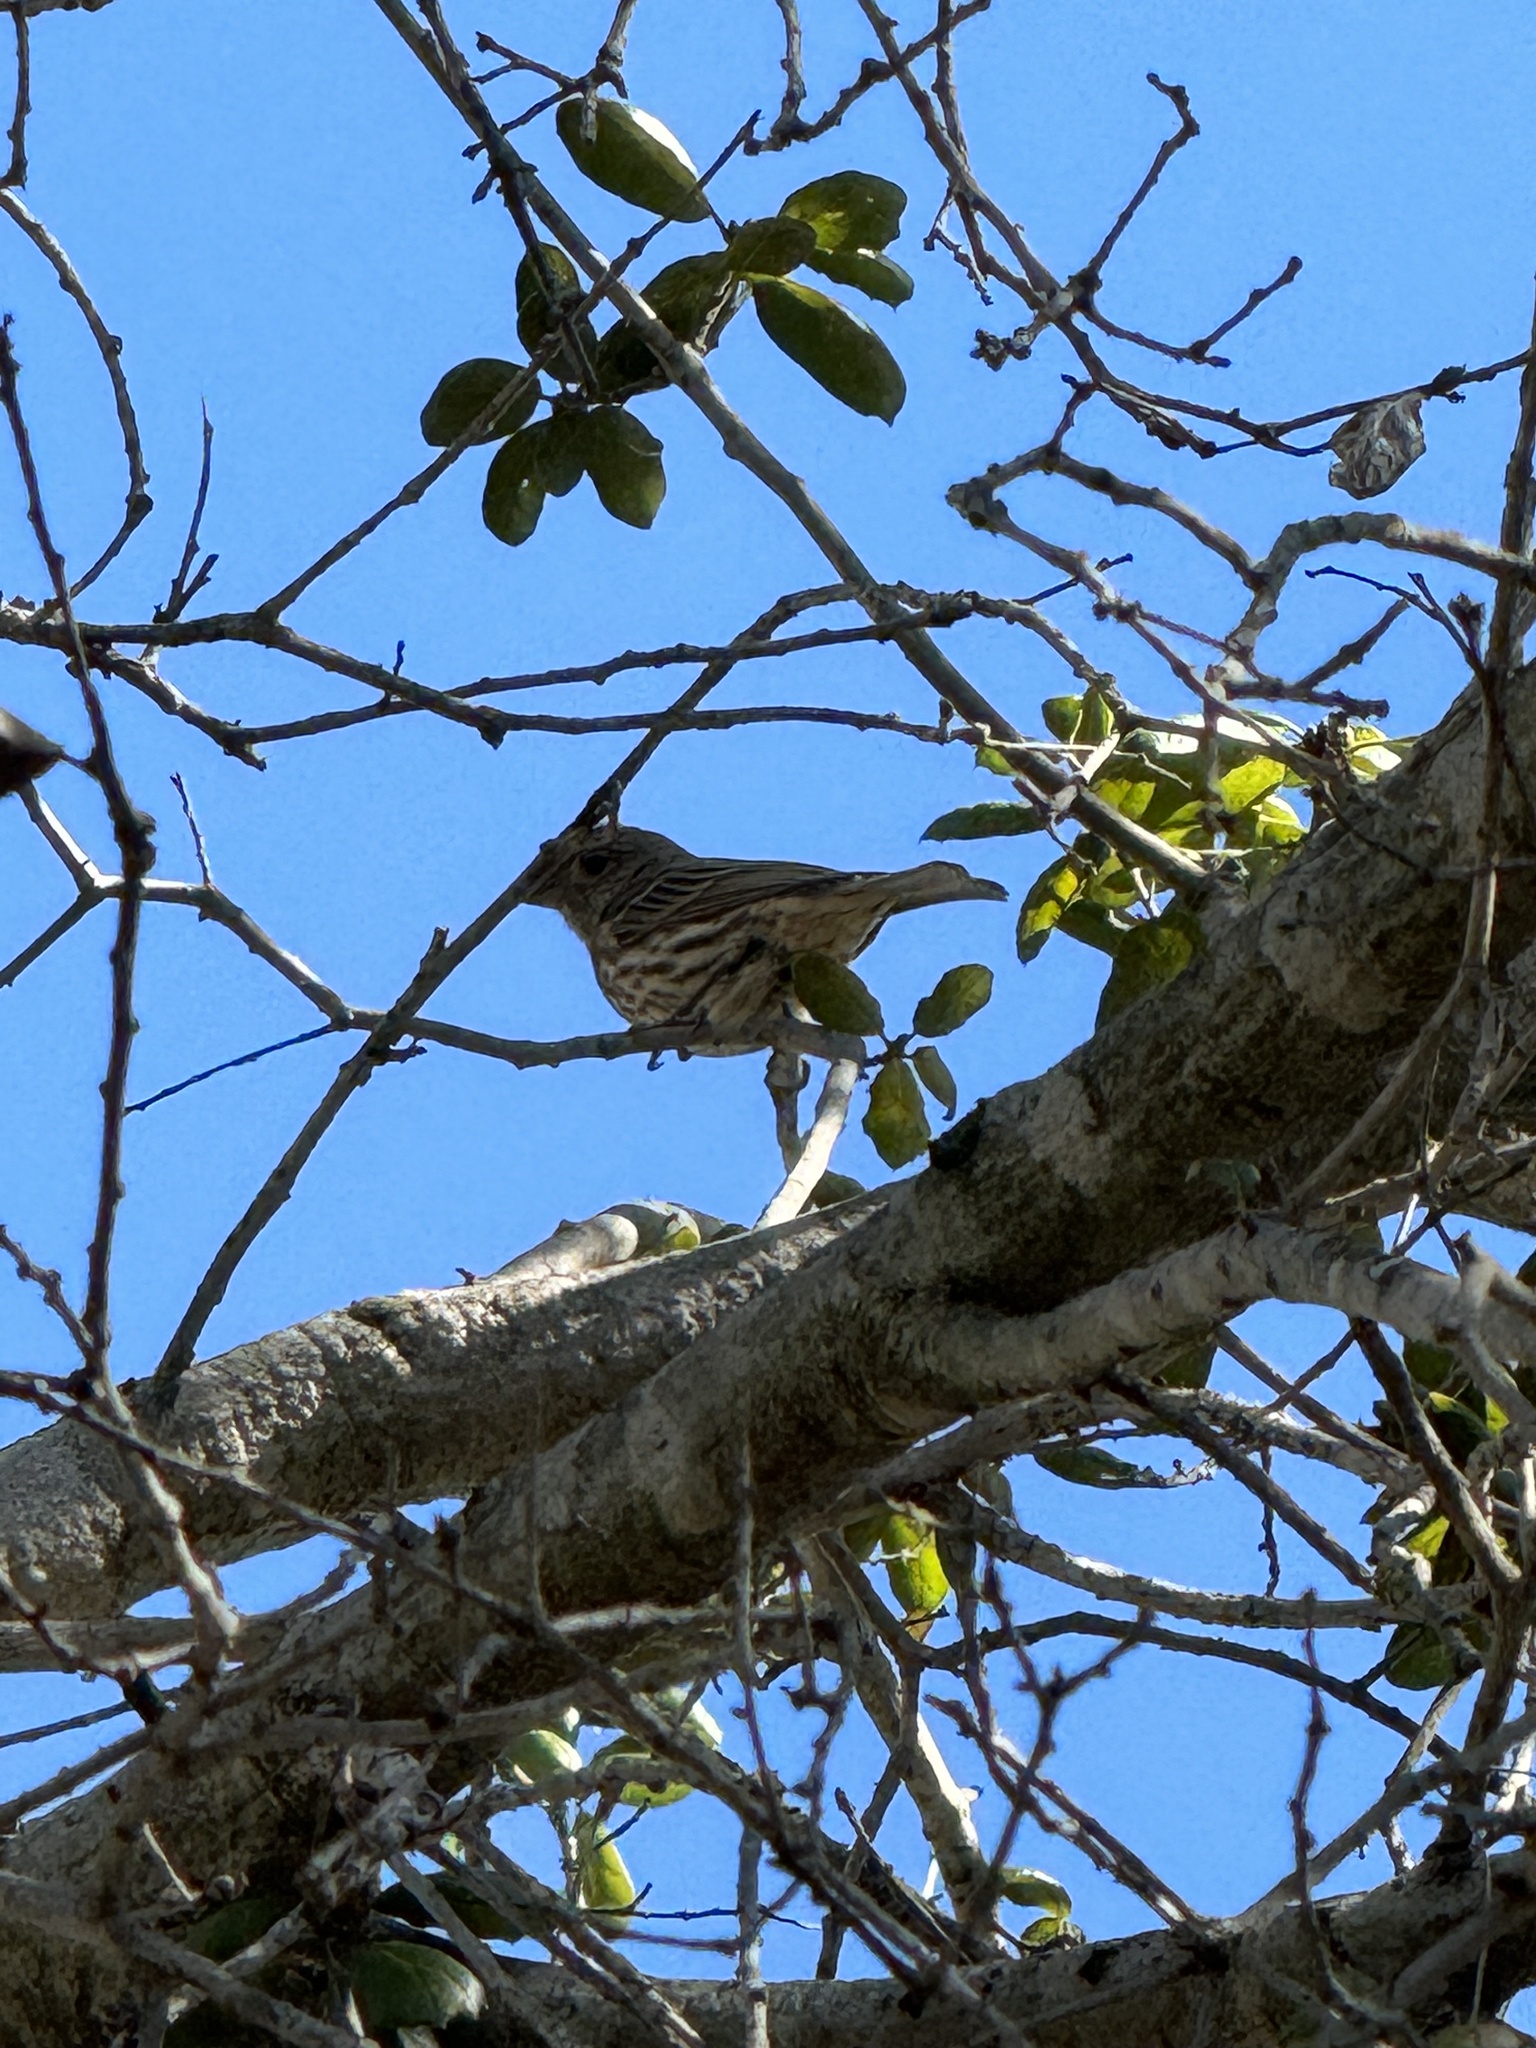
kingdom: Animalia
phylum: Chordata
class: Aves
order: Passeriformes
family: Fringillidae
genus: Haemorhous
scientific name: Haemorhous mexicanus
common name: House finch
